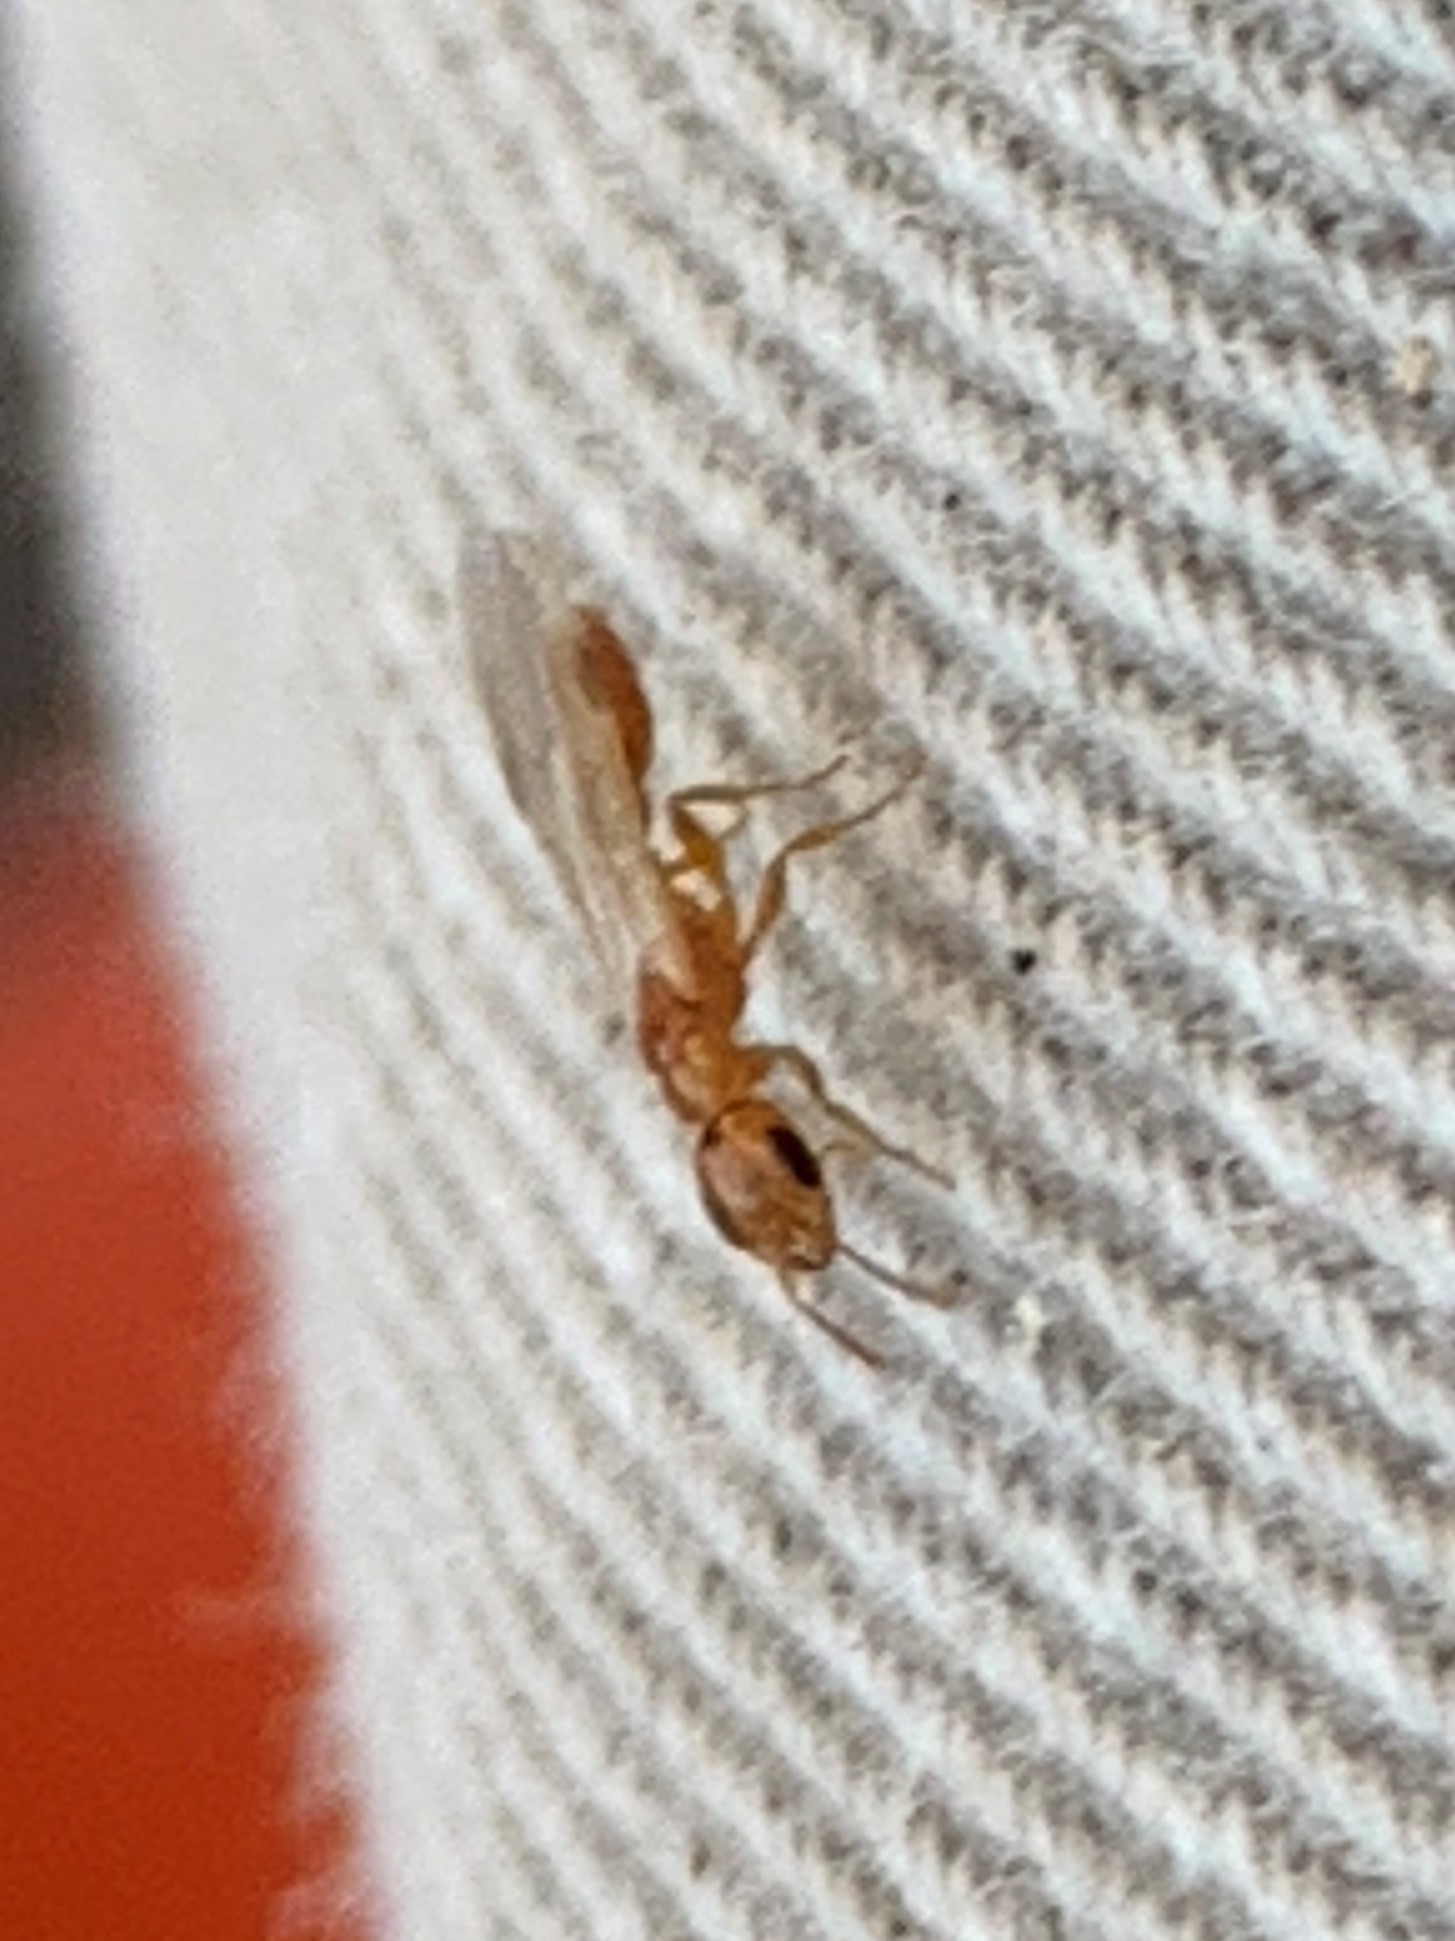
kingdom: Animalia
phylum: Arthropoda
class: Insecta
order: Hymenoptera
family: Formicidae
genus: Pseudomyrmex
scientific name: Pseudomyrmex pallidus
